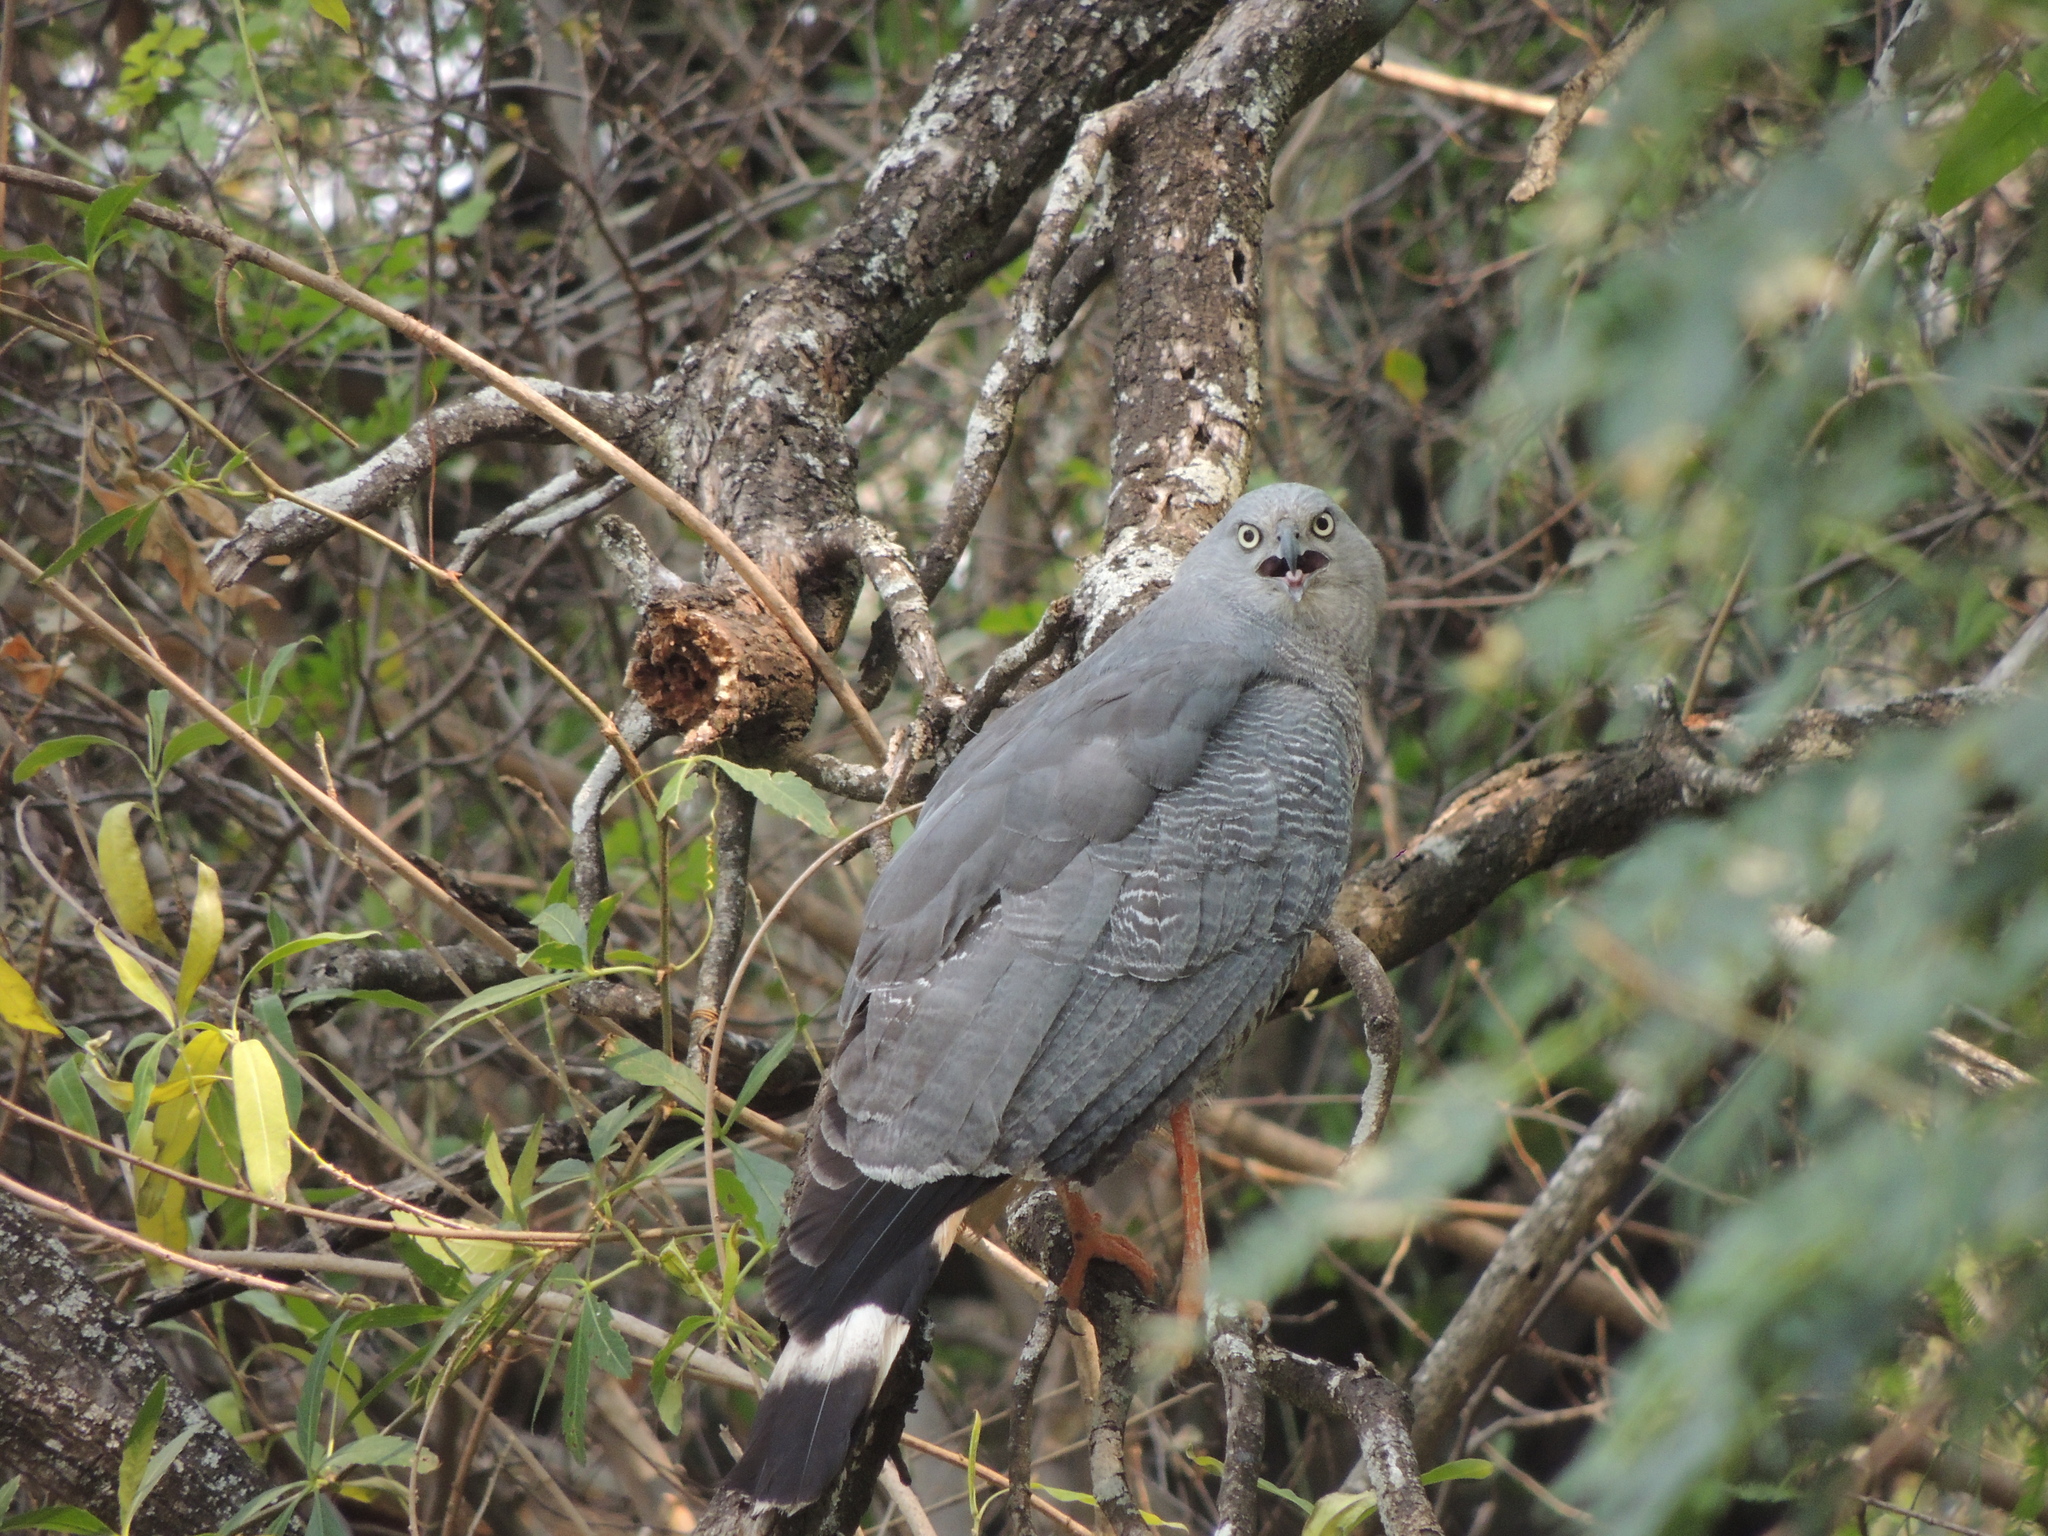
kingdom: Animalia
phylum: Chordata
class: Aves
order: Accipitriformes
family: Accipitridae
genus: Geranospiza
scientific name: Geranospiza caerulescens
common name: Crane hawk
